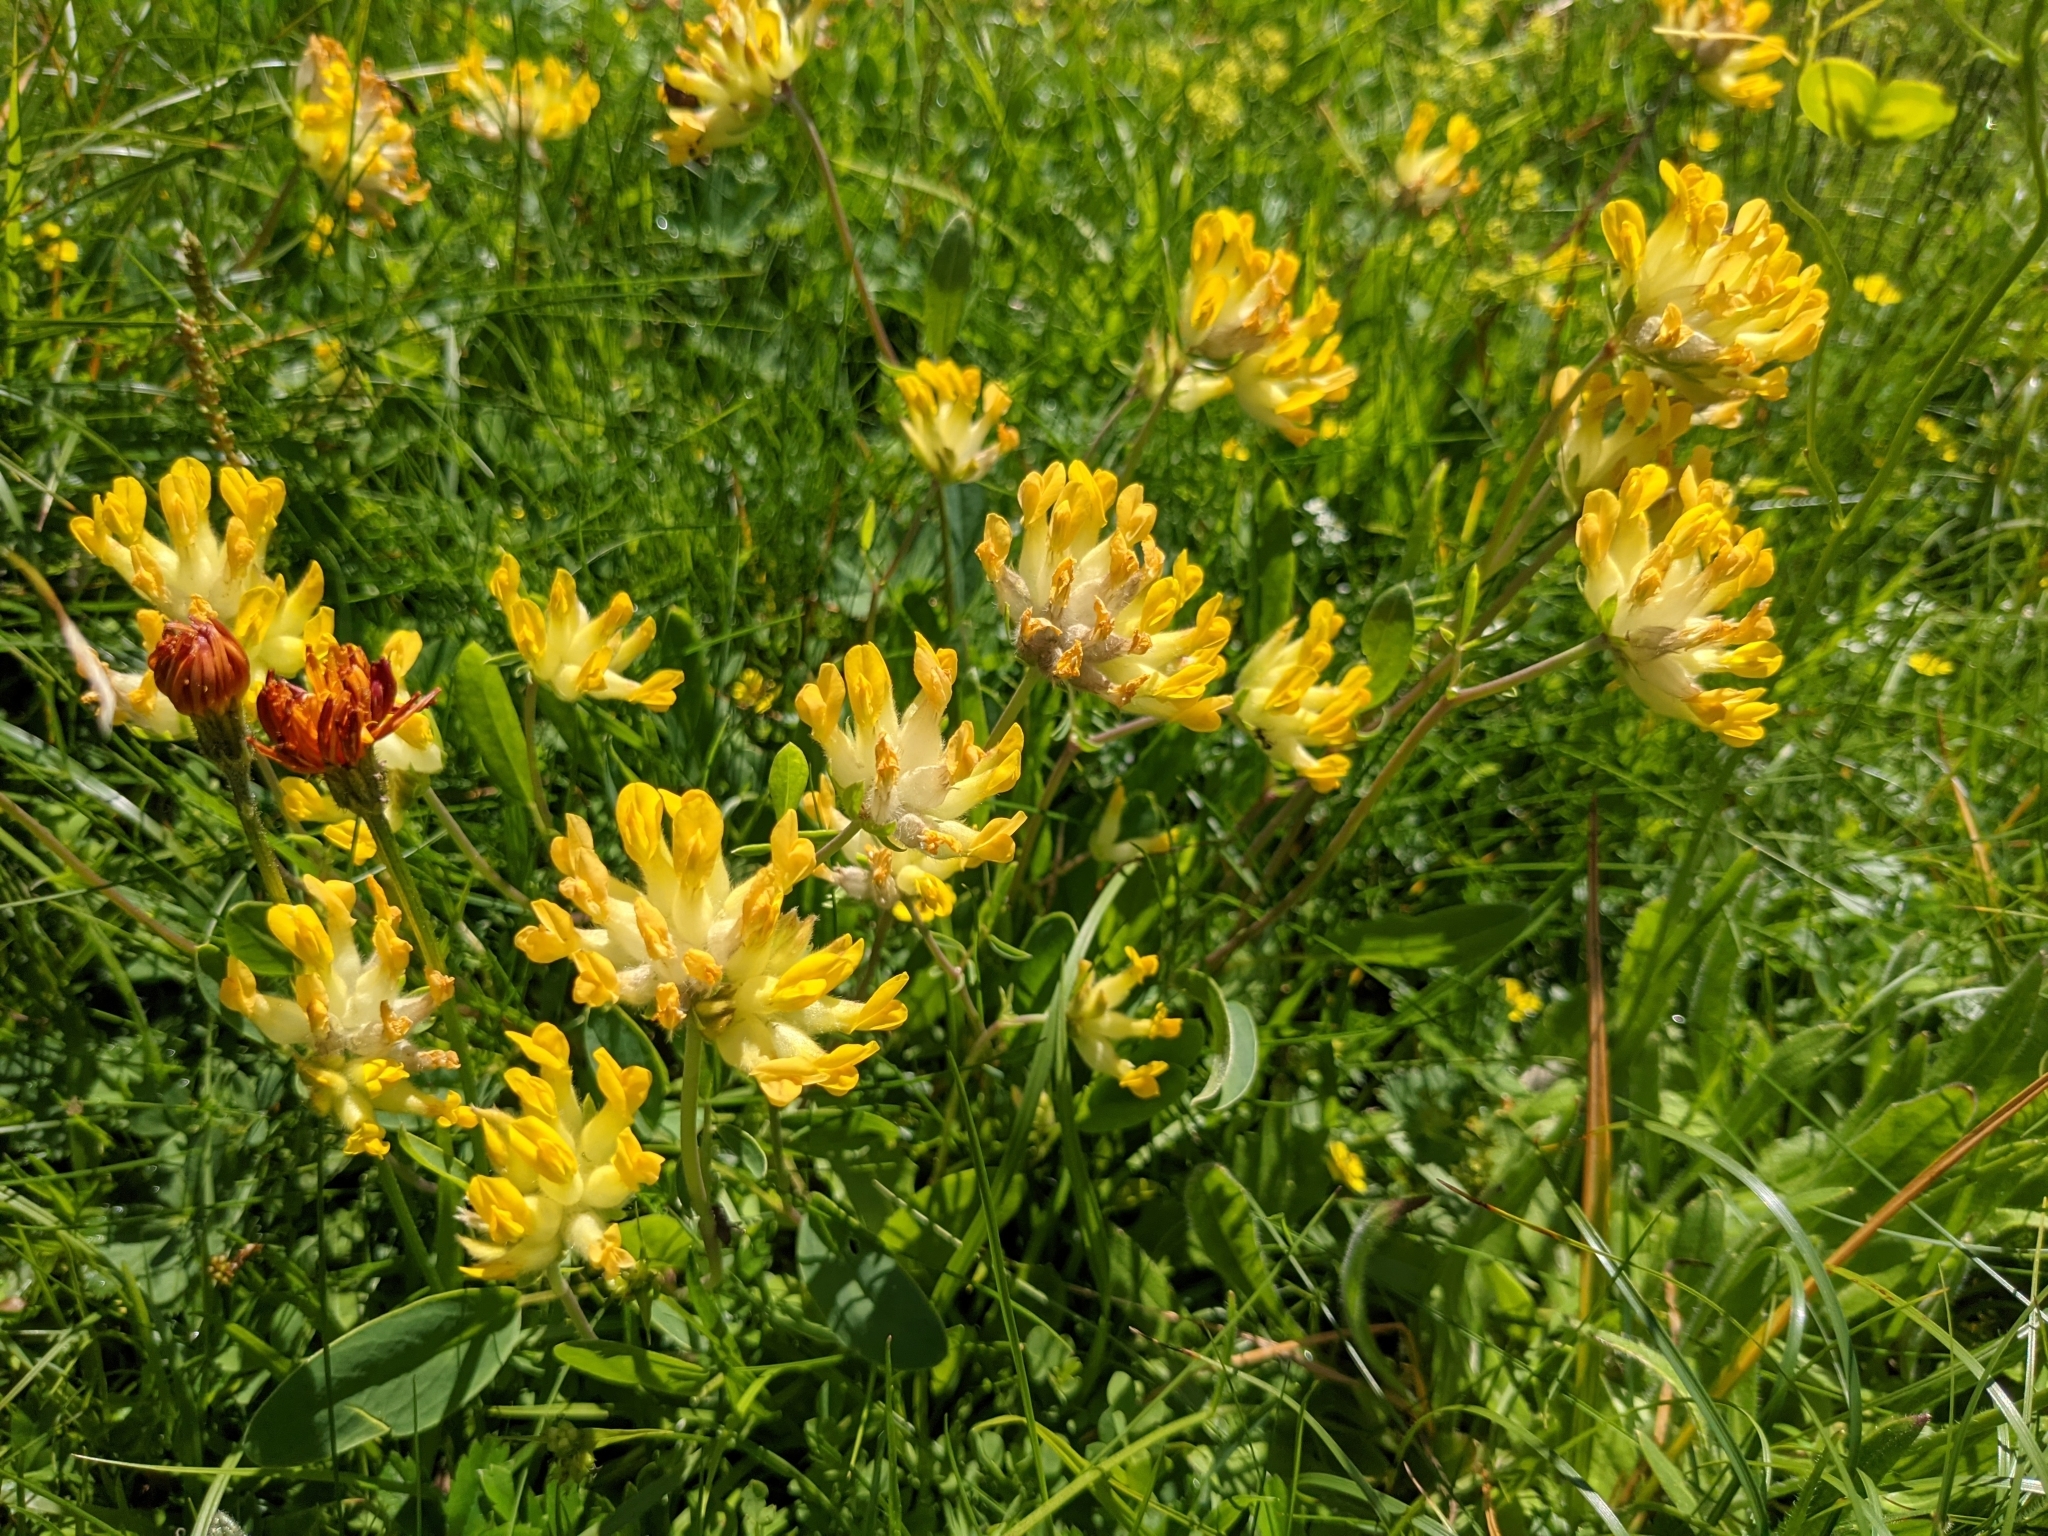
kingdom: Plantae
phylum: Tracheophyta
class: Magnoliopsida
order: Fabales
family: Fabaceae
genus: Anthyllis
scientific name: Anthyllis vulneraria
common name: Kidney vetch
